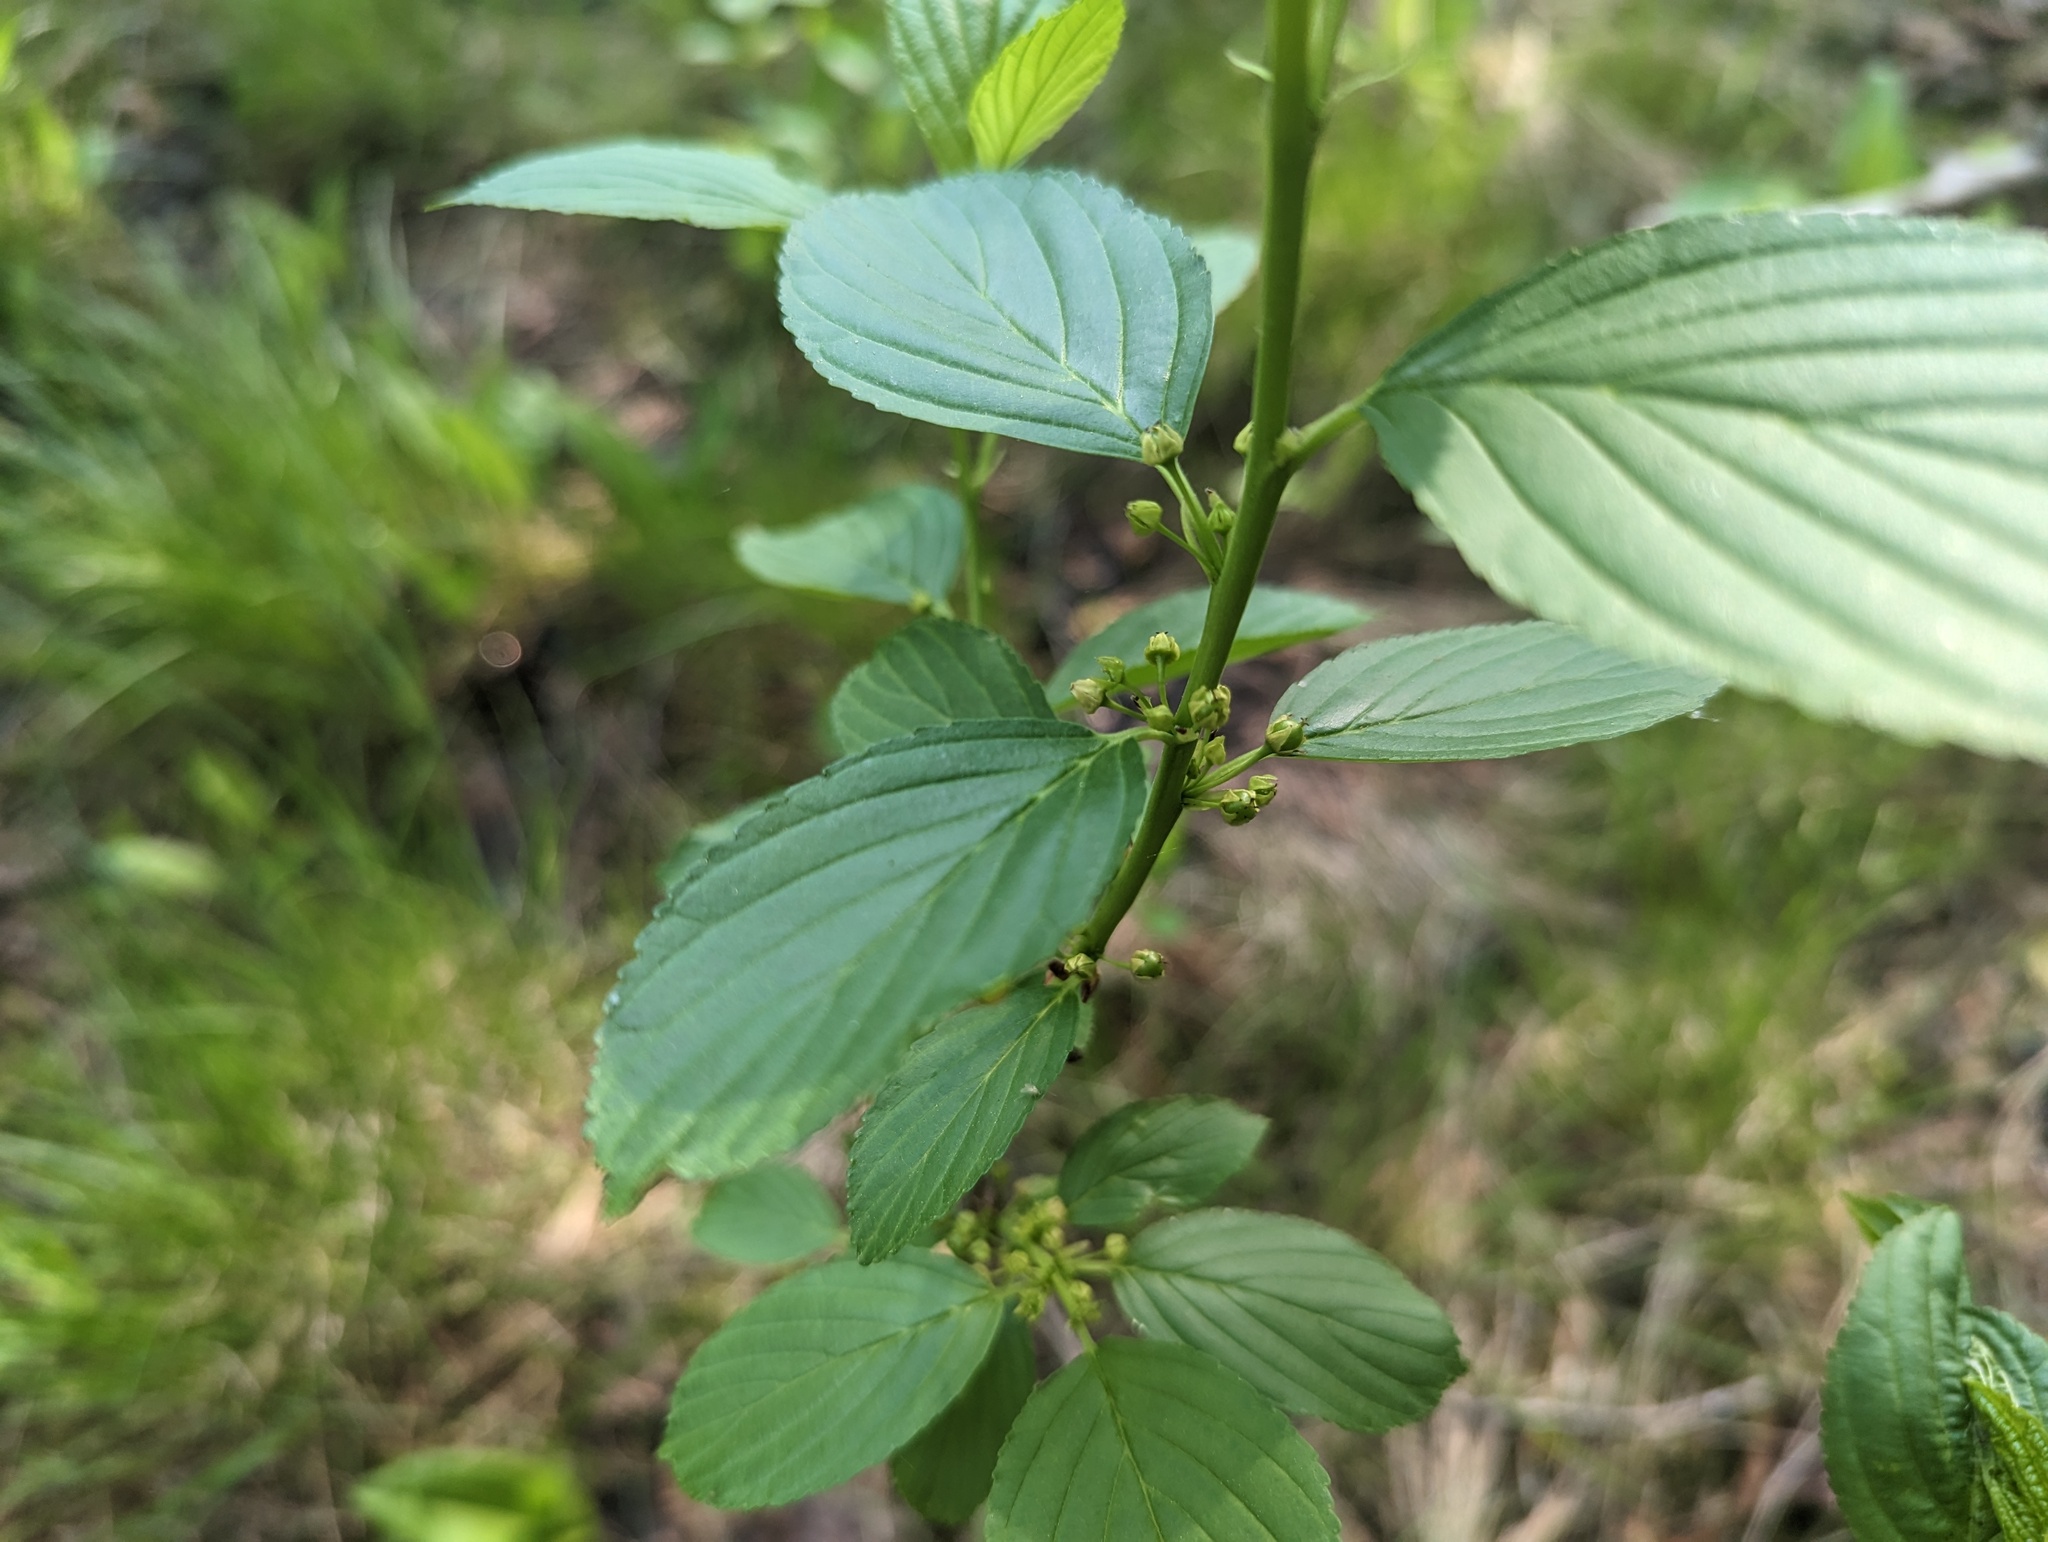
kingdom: Plantae
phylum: Tracheophyta
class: Magnoliopsida
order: Rosales
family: Rhamnaceae
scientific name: Rhamnaceae
